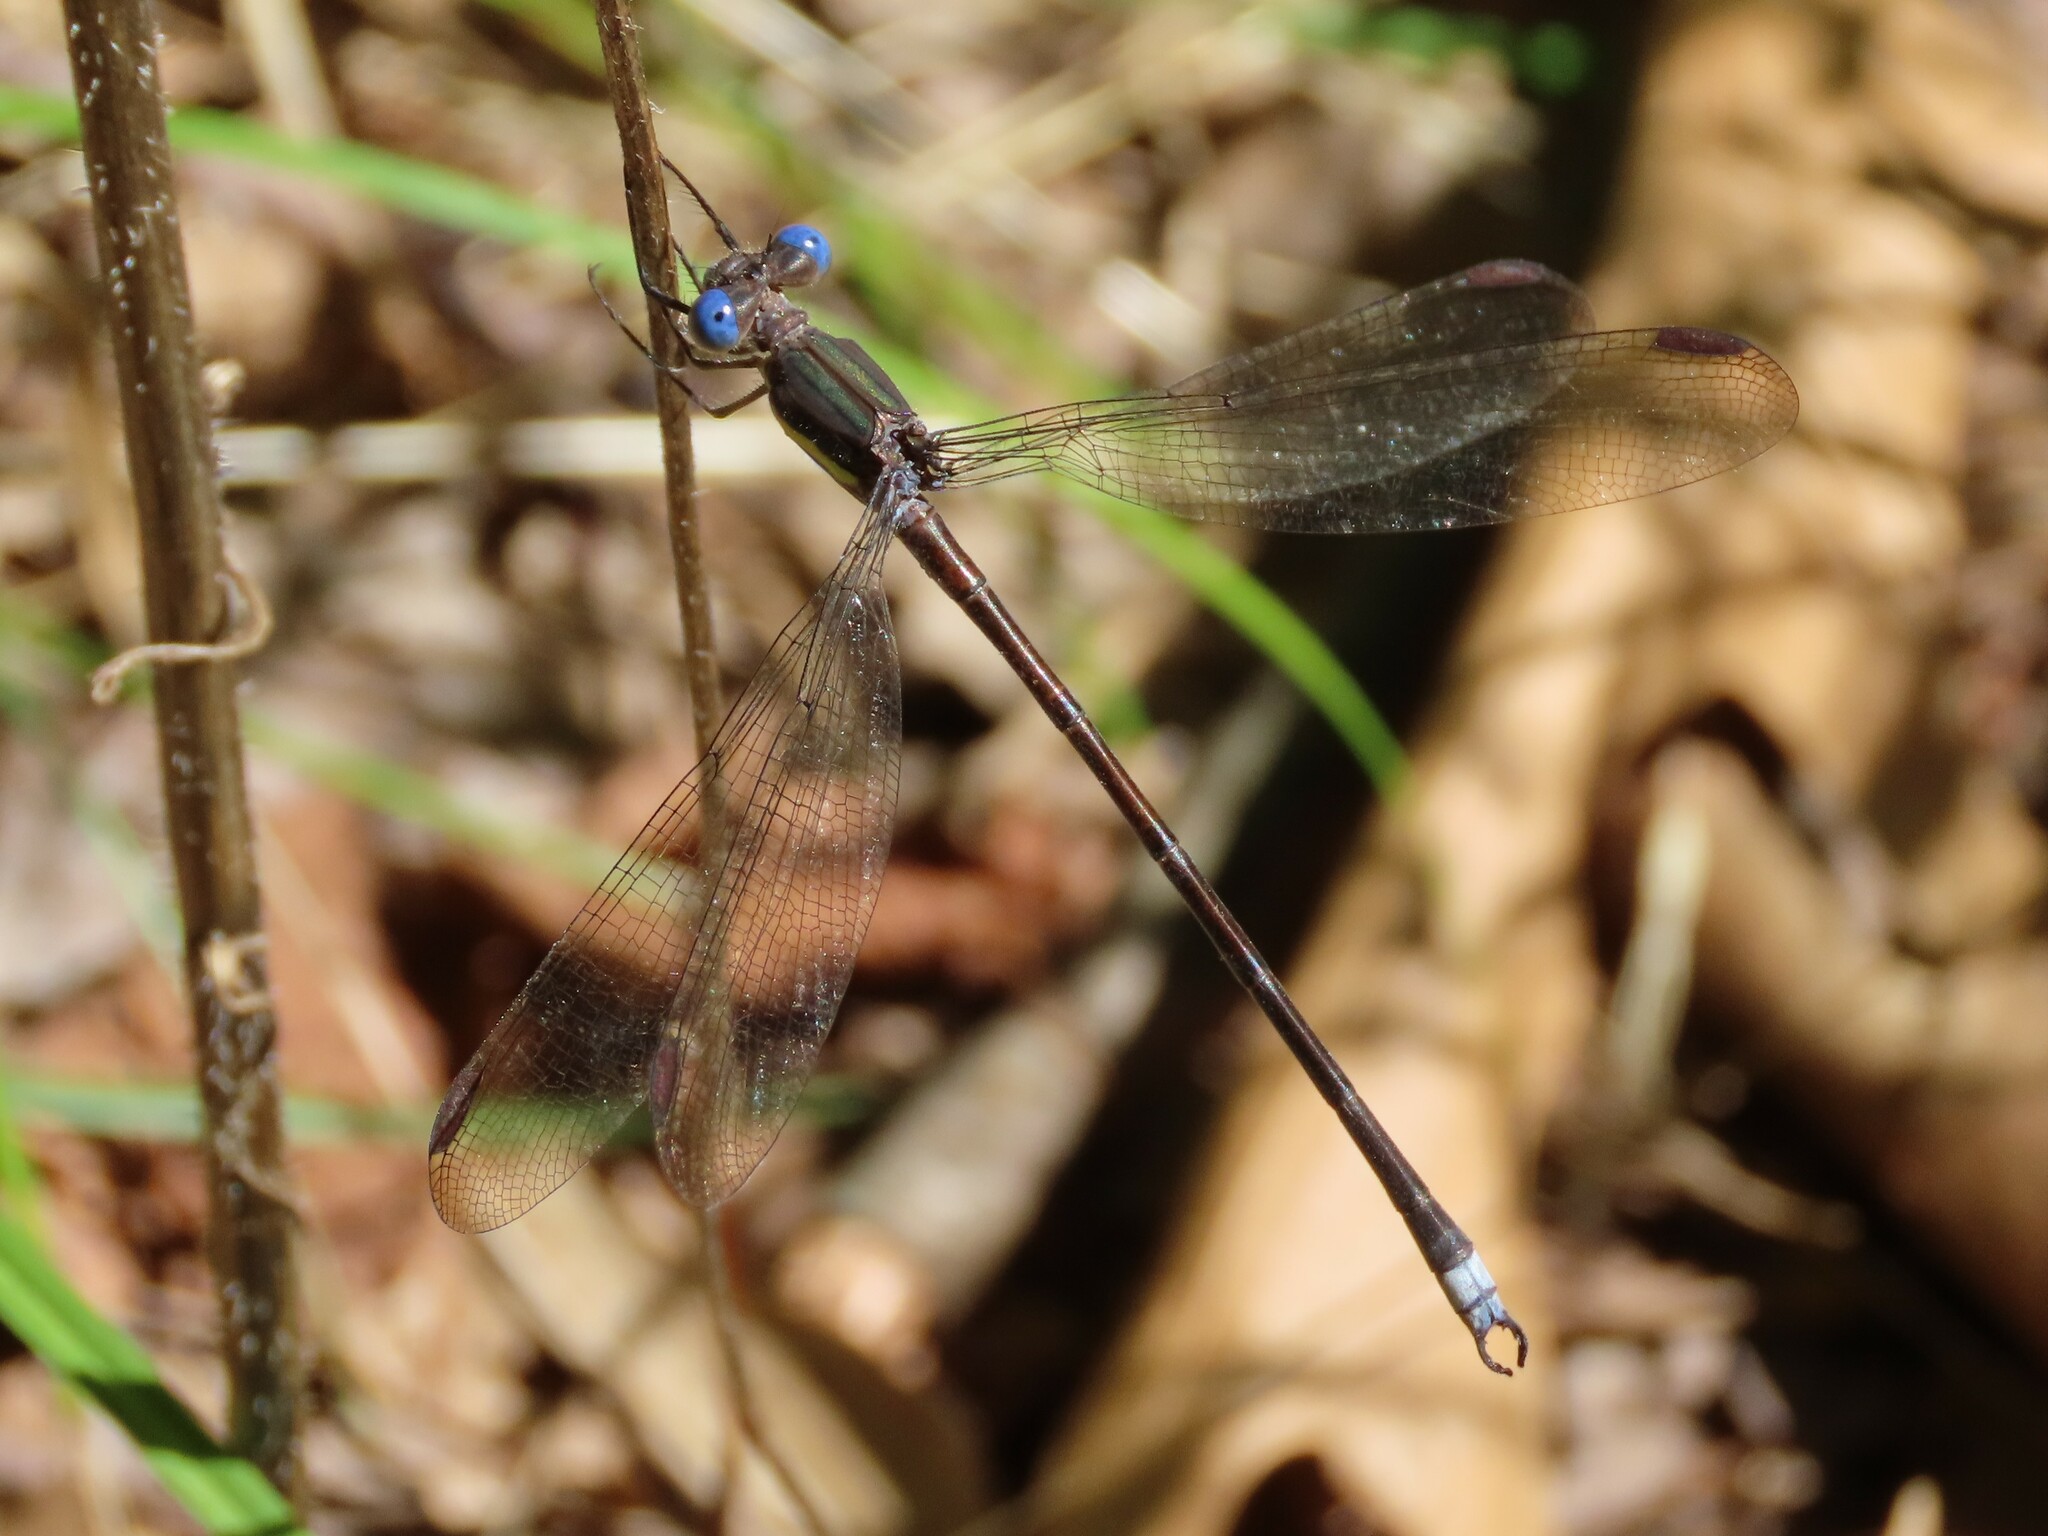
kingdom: Animalia
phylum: Arthropoda
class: Insecta
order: Odonata
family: Lestidae
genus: Archilestes
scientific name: Archilestes grandis
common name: Great spreadwing
